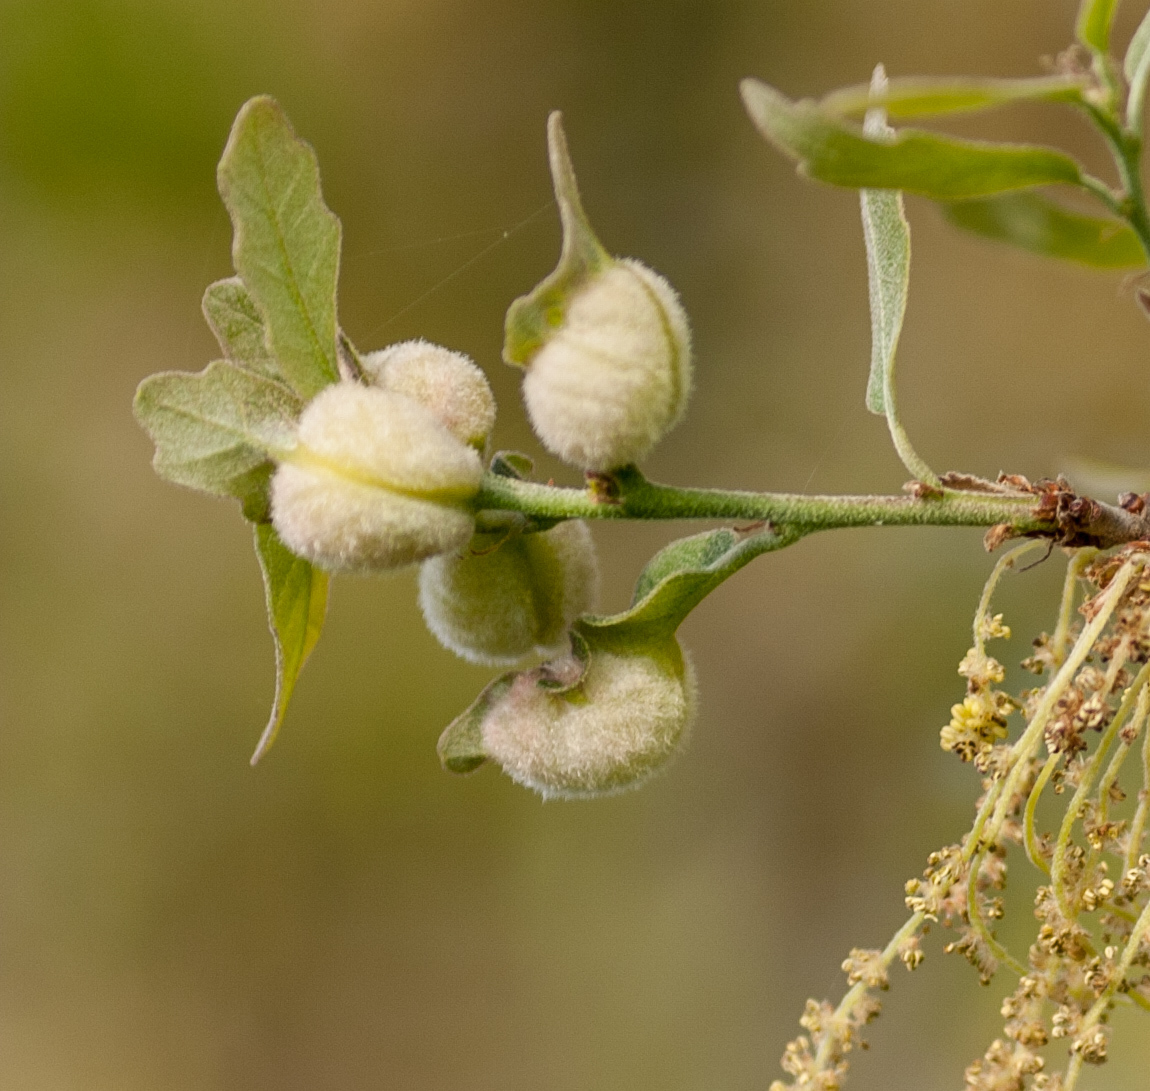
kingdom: Animalia
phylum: Arthropoda
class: Insecta
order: Hymenoptera
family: Cynipidae
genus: Neuroterus
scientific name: Neuroterus
